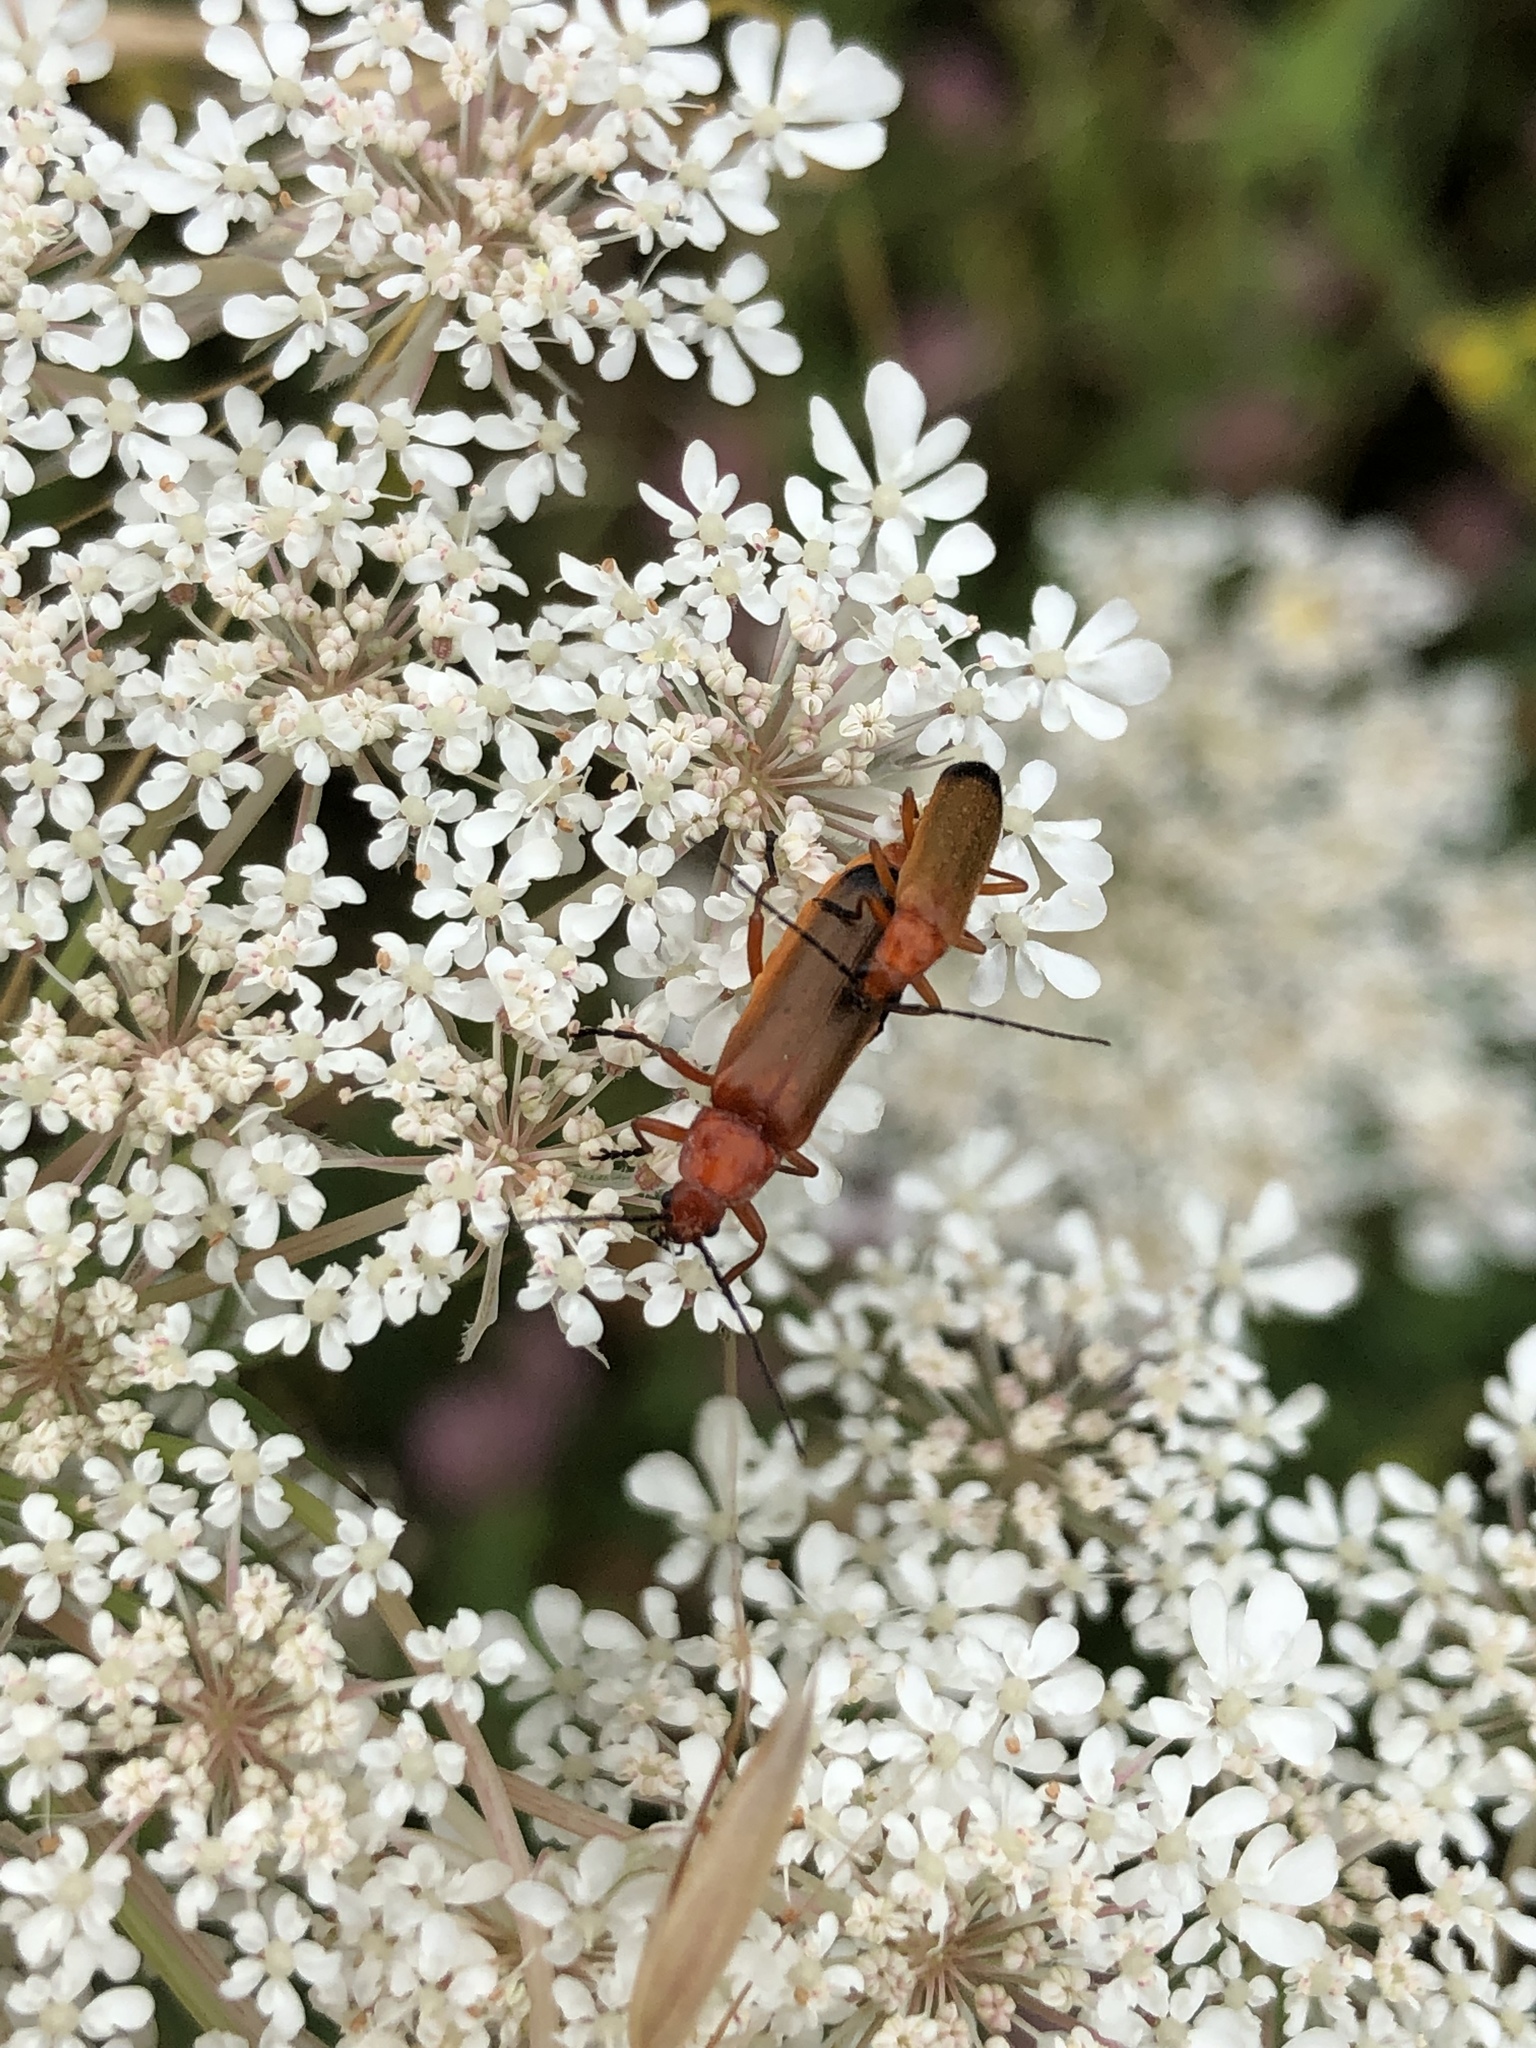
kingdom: Animalia
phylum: Arthropoda
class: Insecta
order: Coleoptera
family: Cantharidae
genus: Rhagonycha
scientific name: Rhagonycha fulva
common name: Common red soldier beetle
